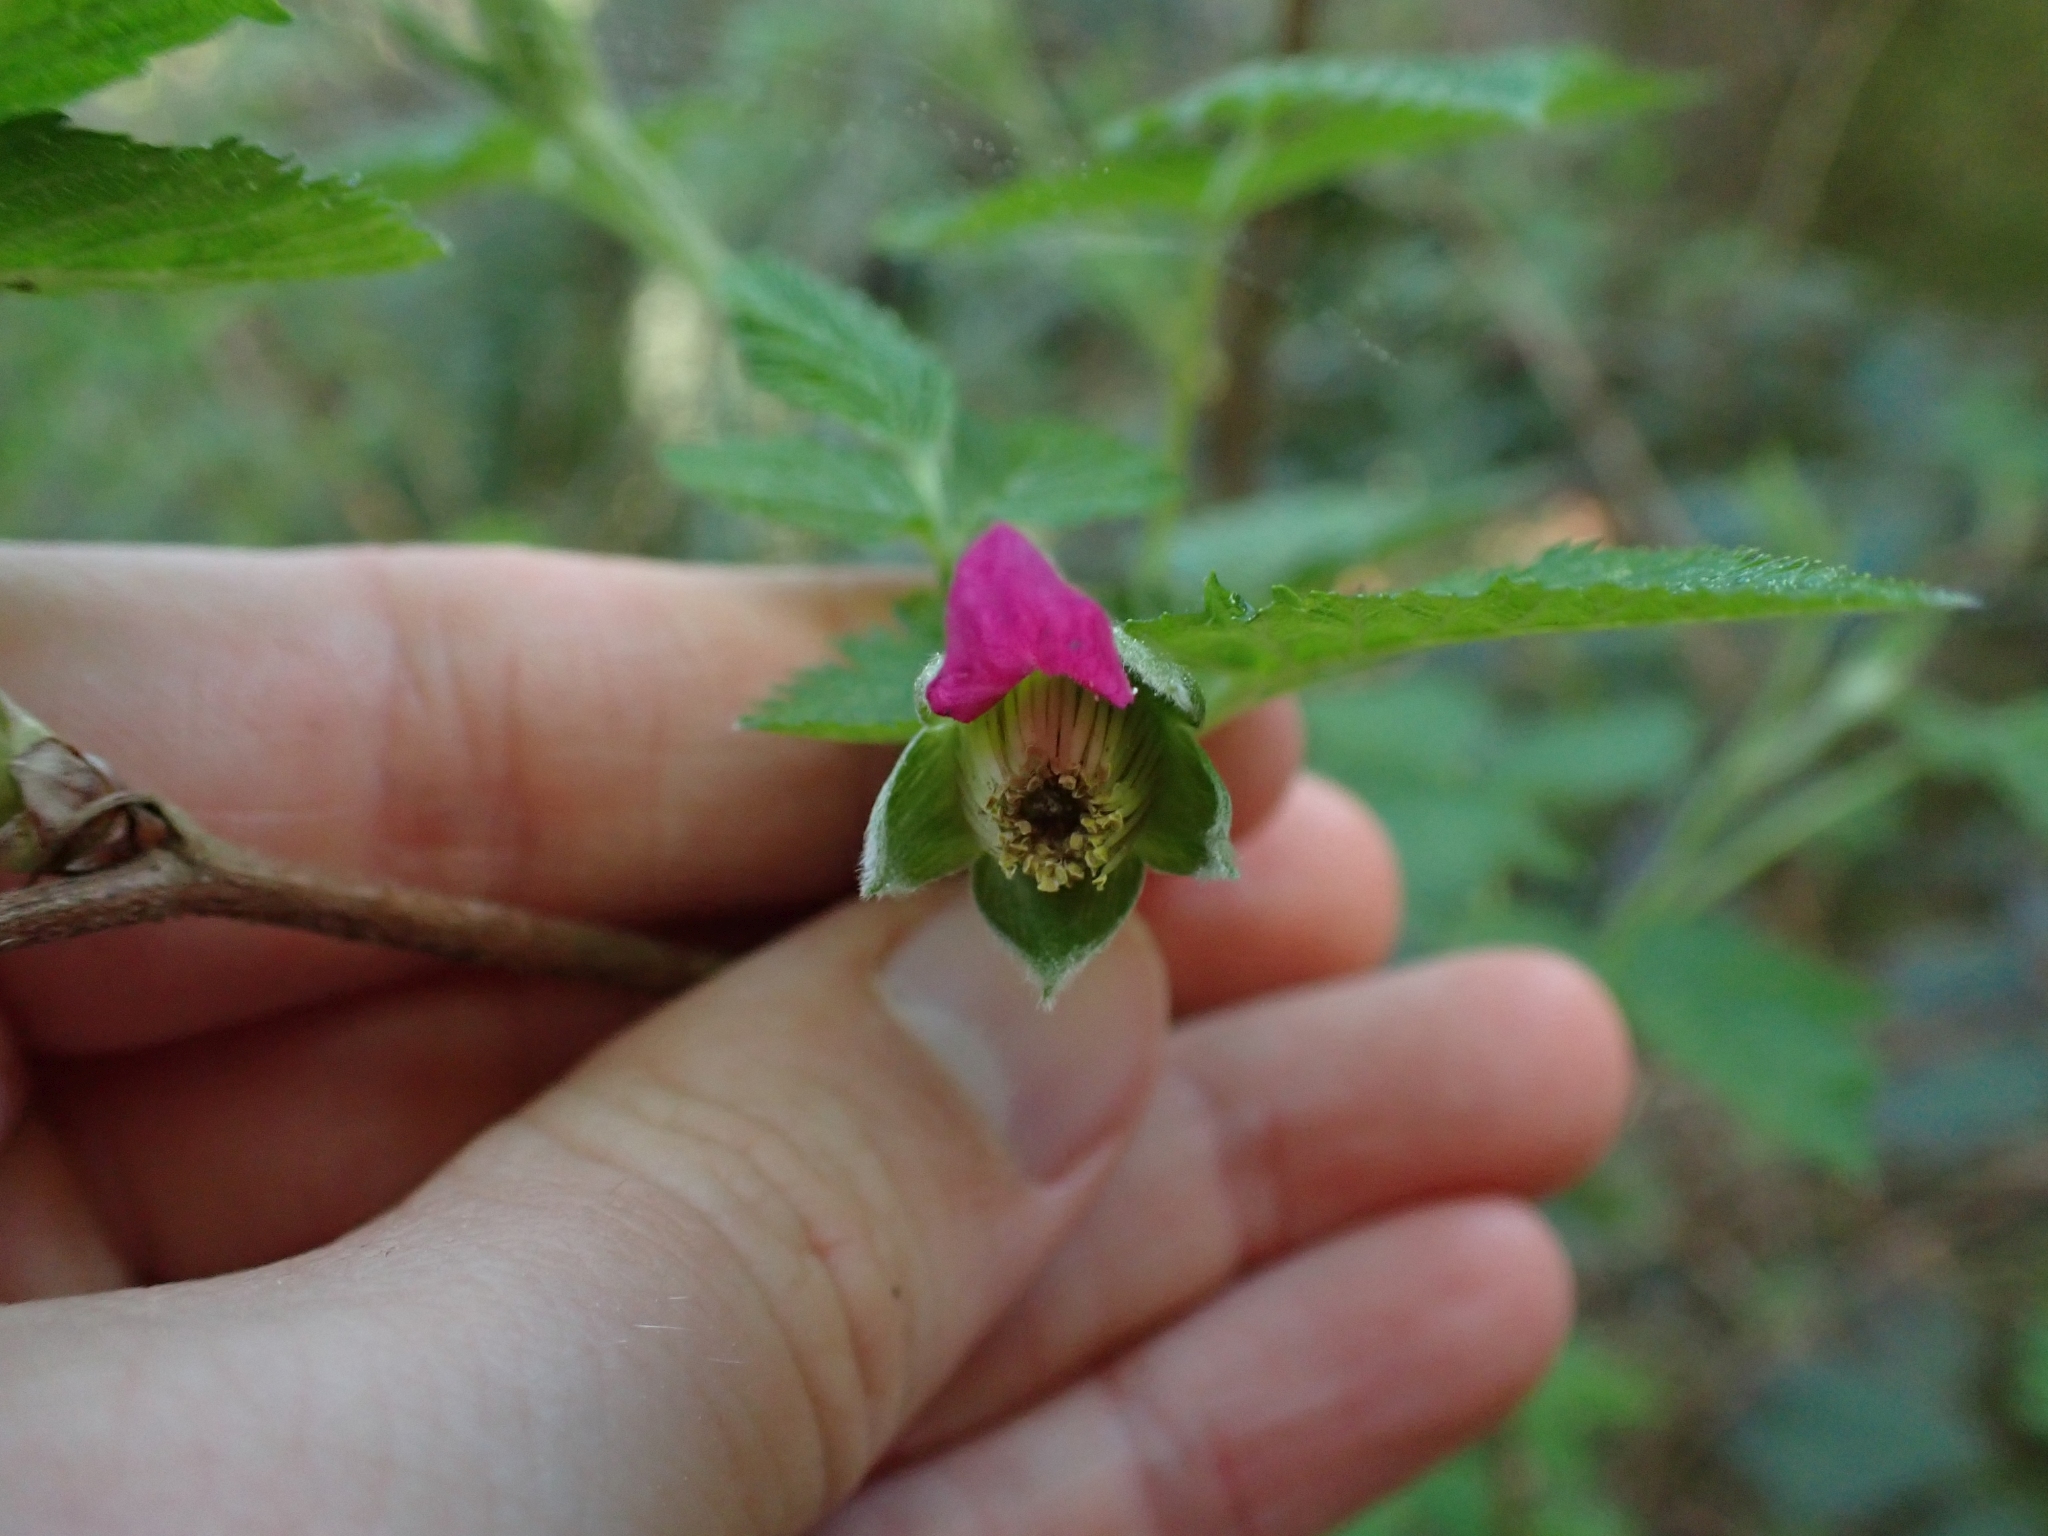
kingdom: Plantae
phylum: Tracheophyta
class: Magnoliopsida
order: Rosales
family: Rosaceae
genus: Rubus
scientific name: Rubus spectabilis
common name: Salmonberry
